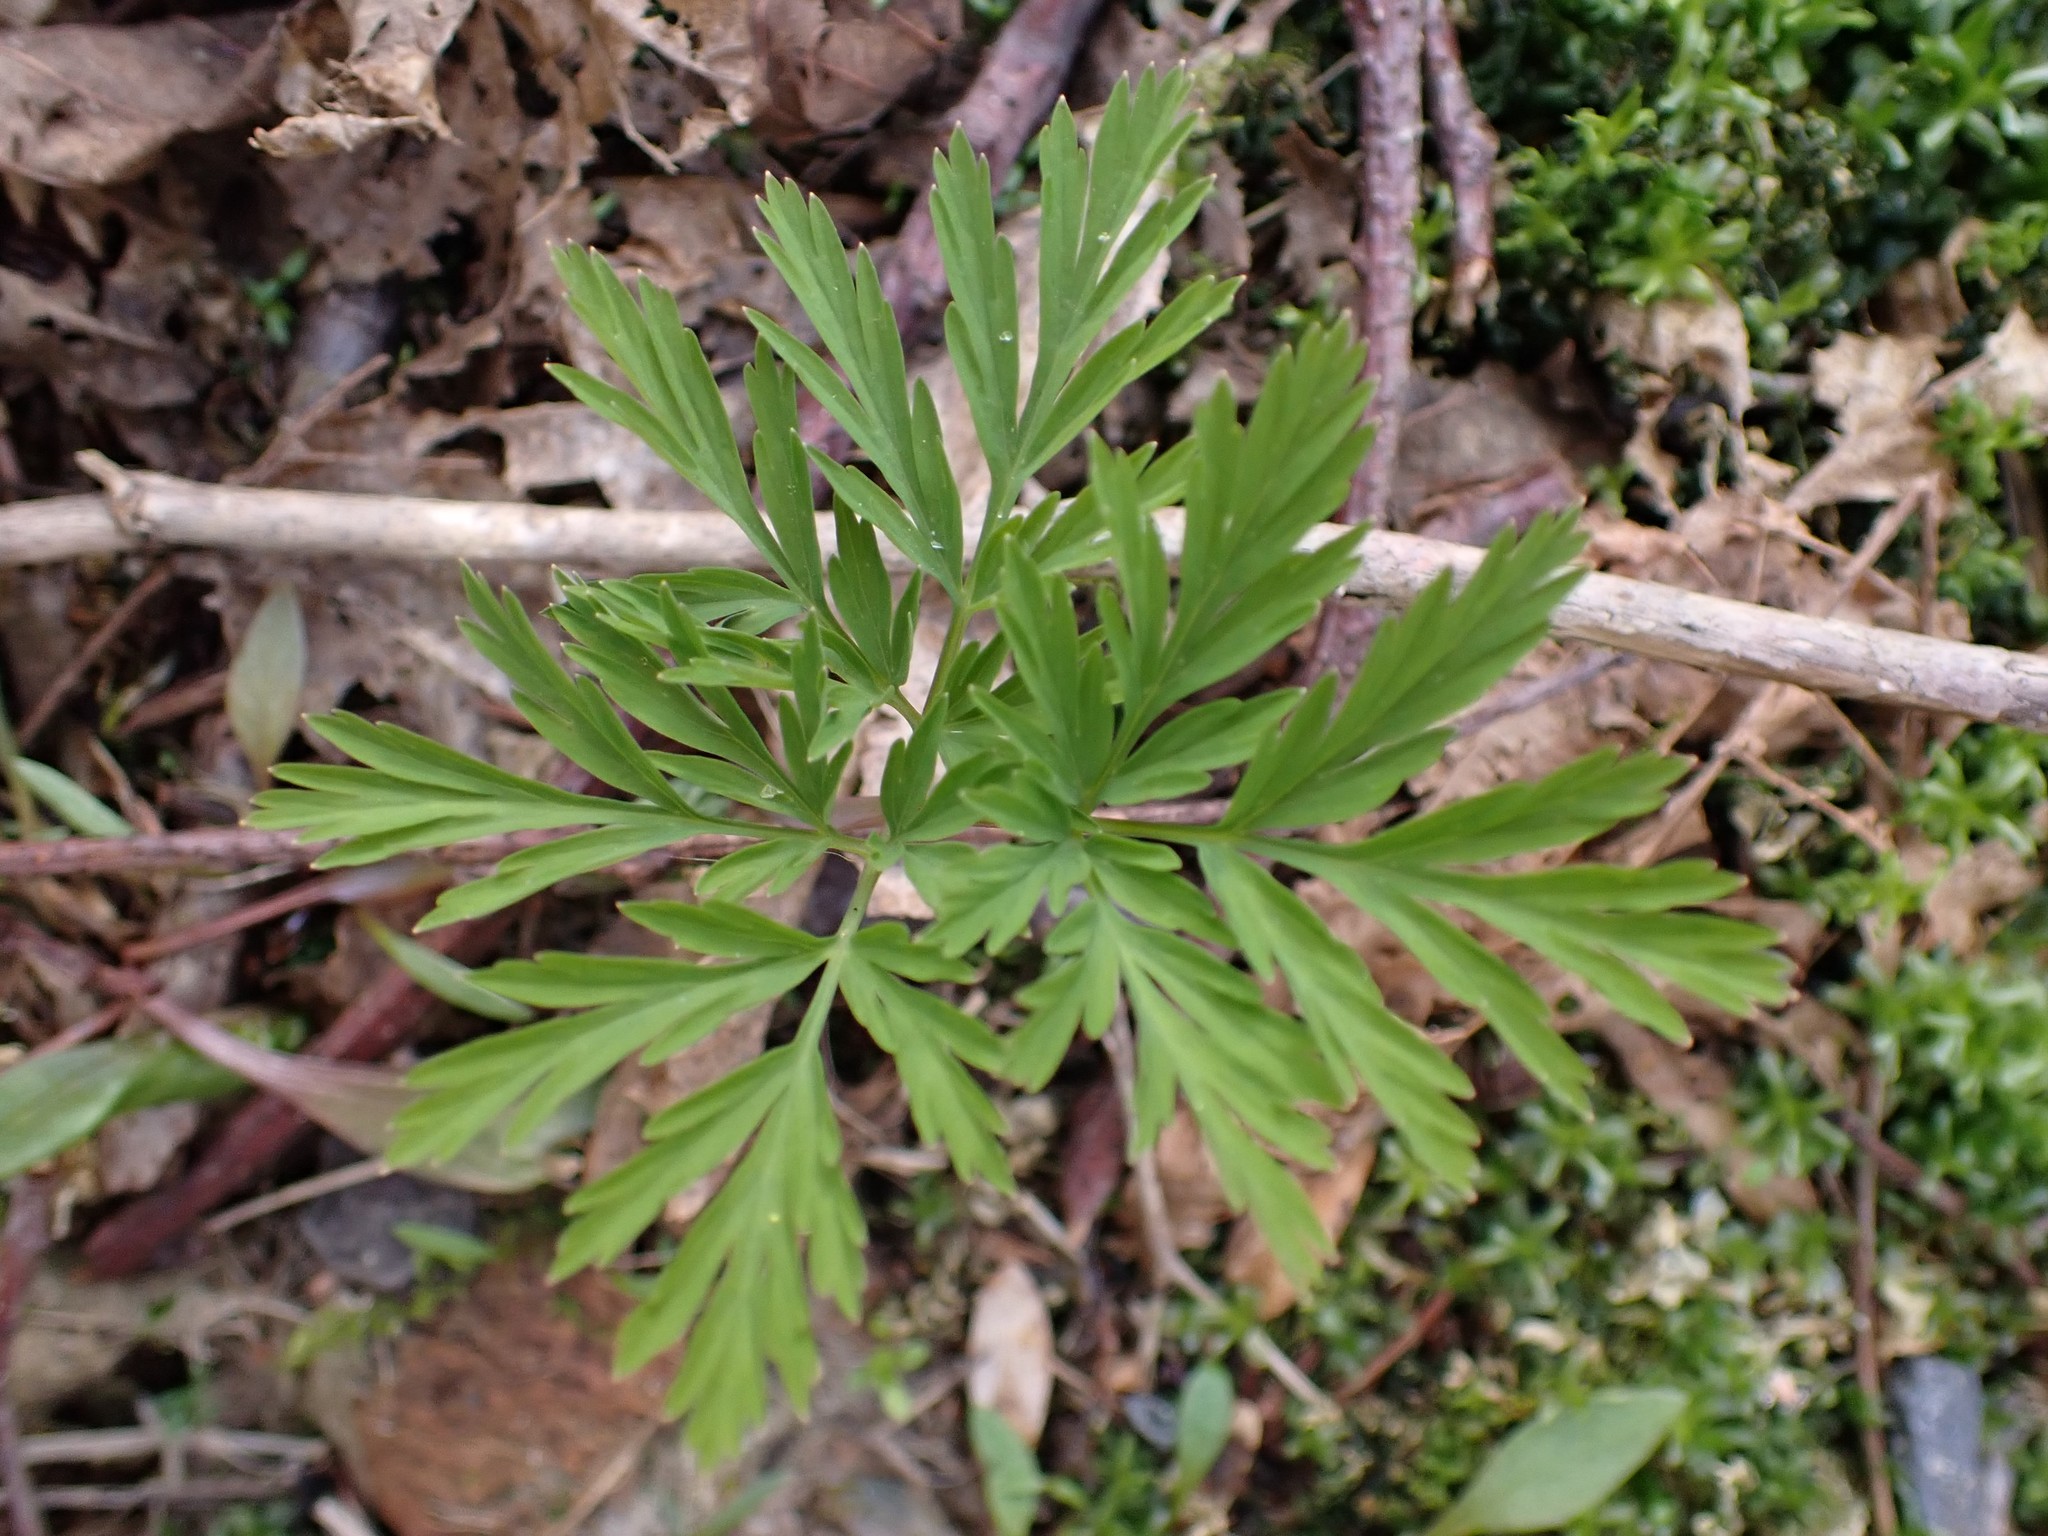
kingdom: Plantae
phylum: Tracheophyta
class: Magnoliopsida
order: Ranunculales
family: Papaveraceae
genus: Dicentra
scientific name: Dicentra formosa
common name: Bleeding-heart
